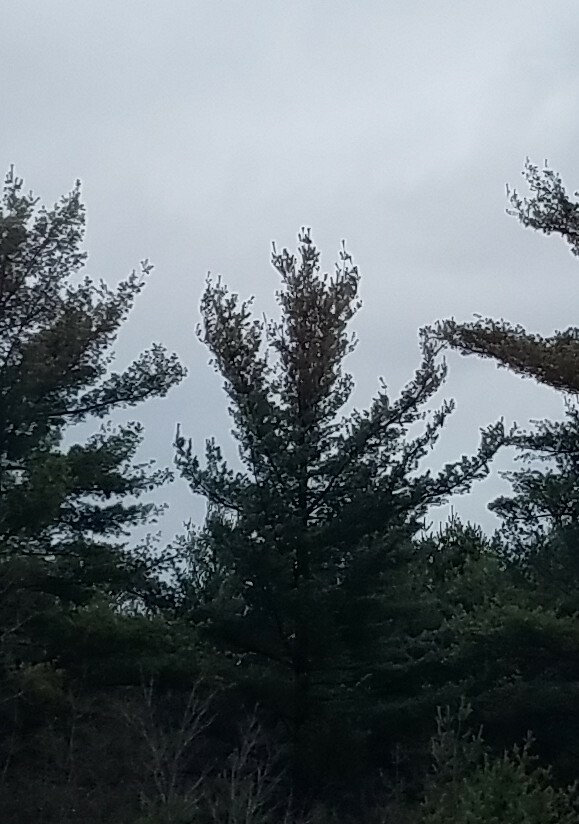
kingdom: Plantae
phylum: Tracheophyta
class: Pinopsida
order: Pinales
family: Pinaceae
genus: Pinus
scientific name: Pinus strobus
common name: Weymouth pine
